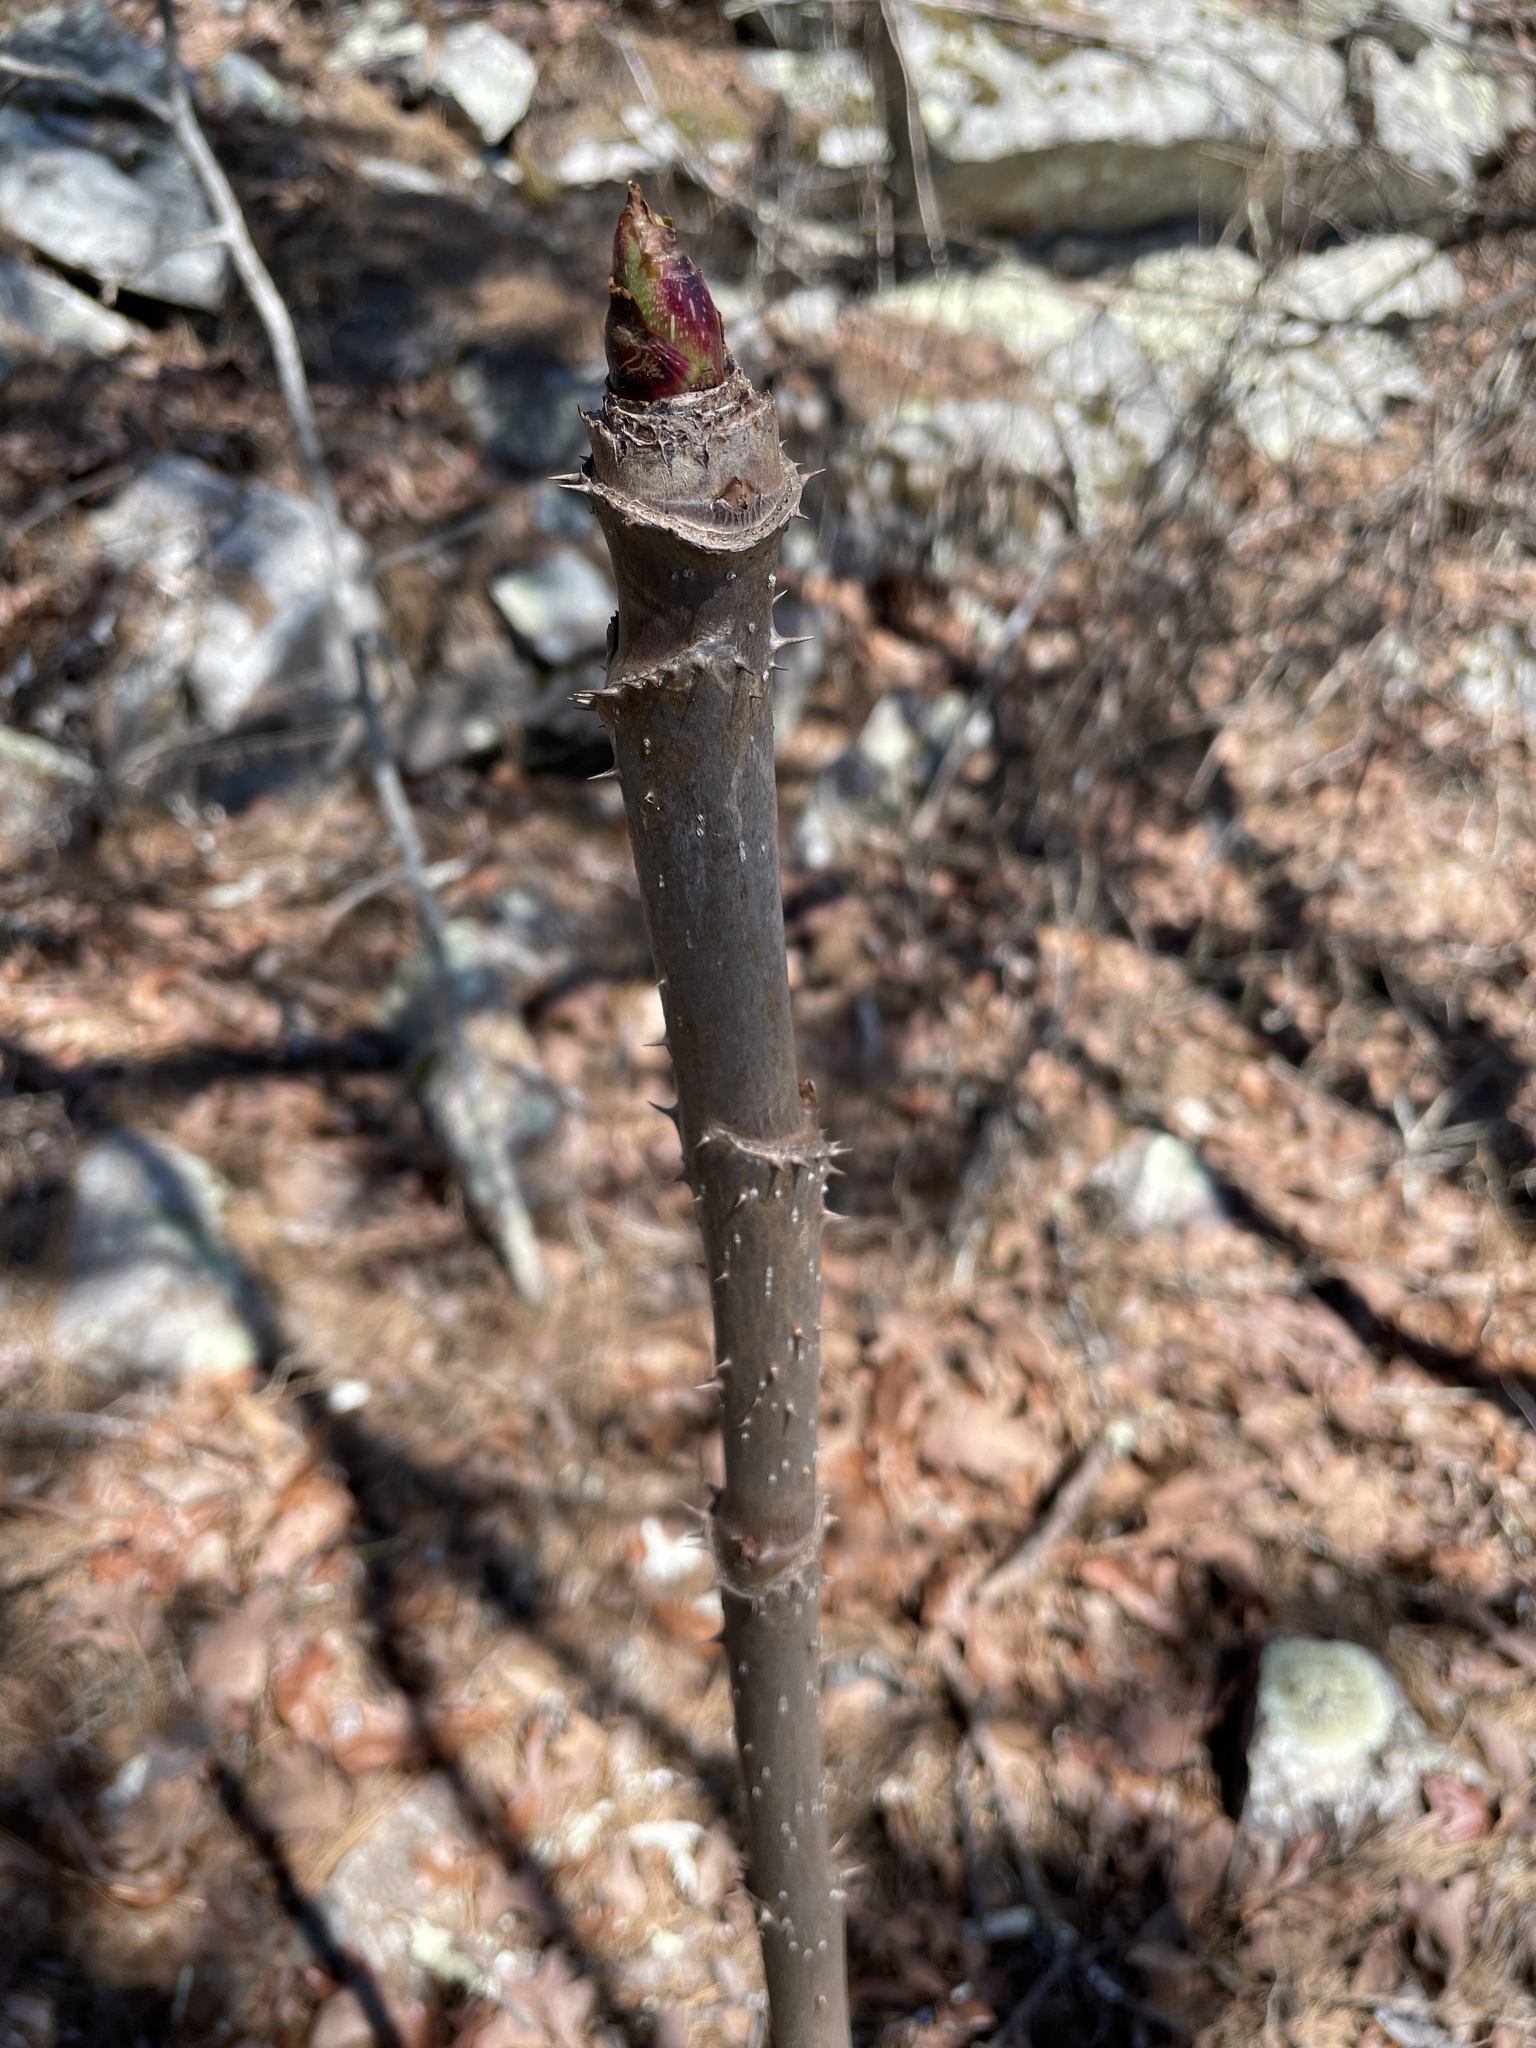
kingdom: Plantae
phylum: Tracheophyta
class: Magnoliopsida
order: Apiales
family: Araliaceae
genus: Aralia
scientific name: Aralia spinosa
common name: Hercules'-club
